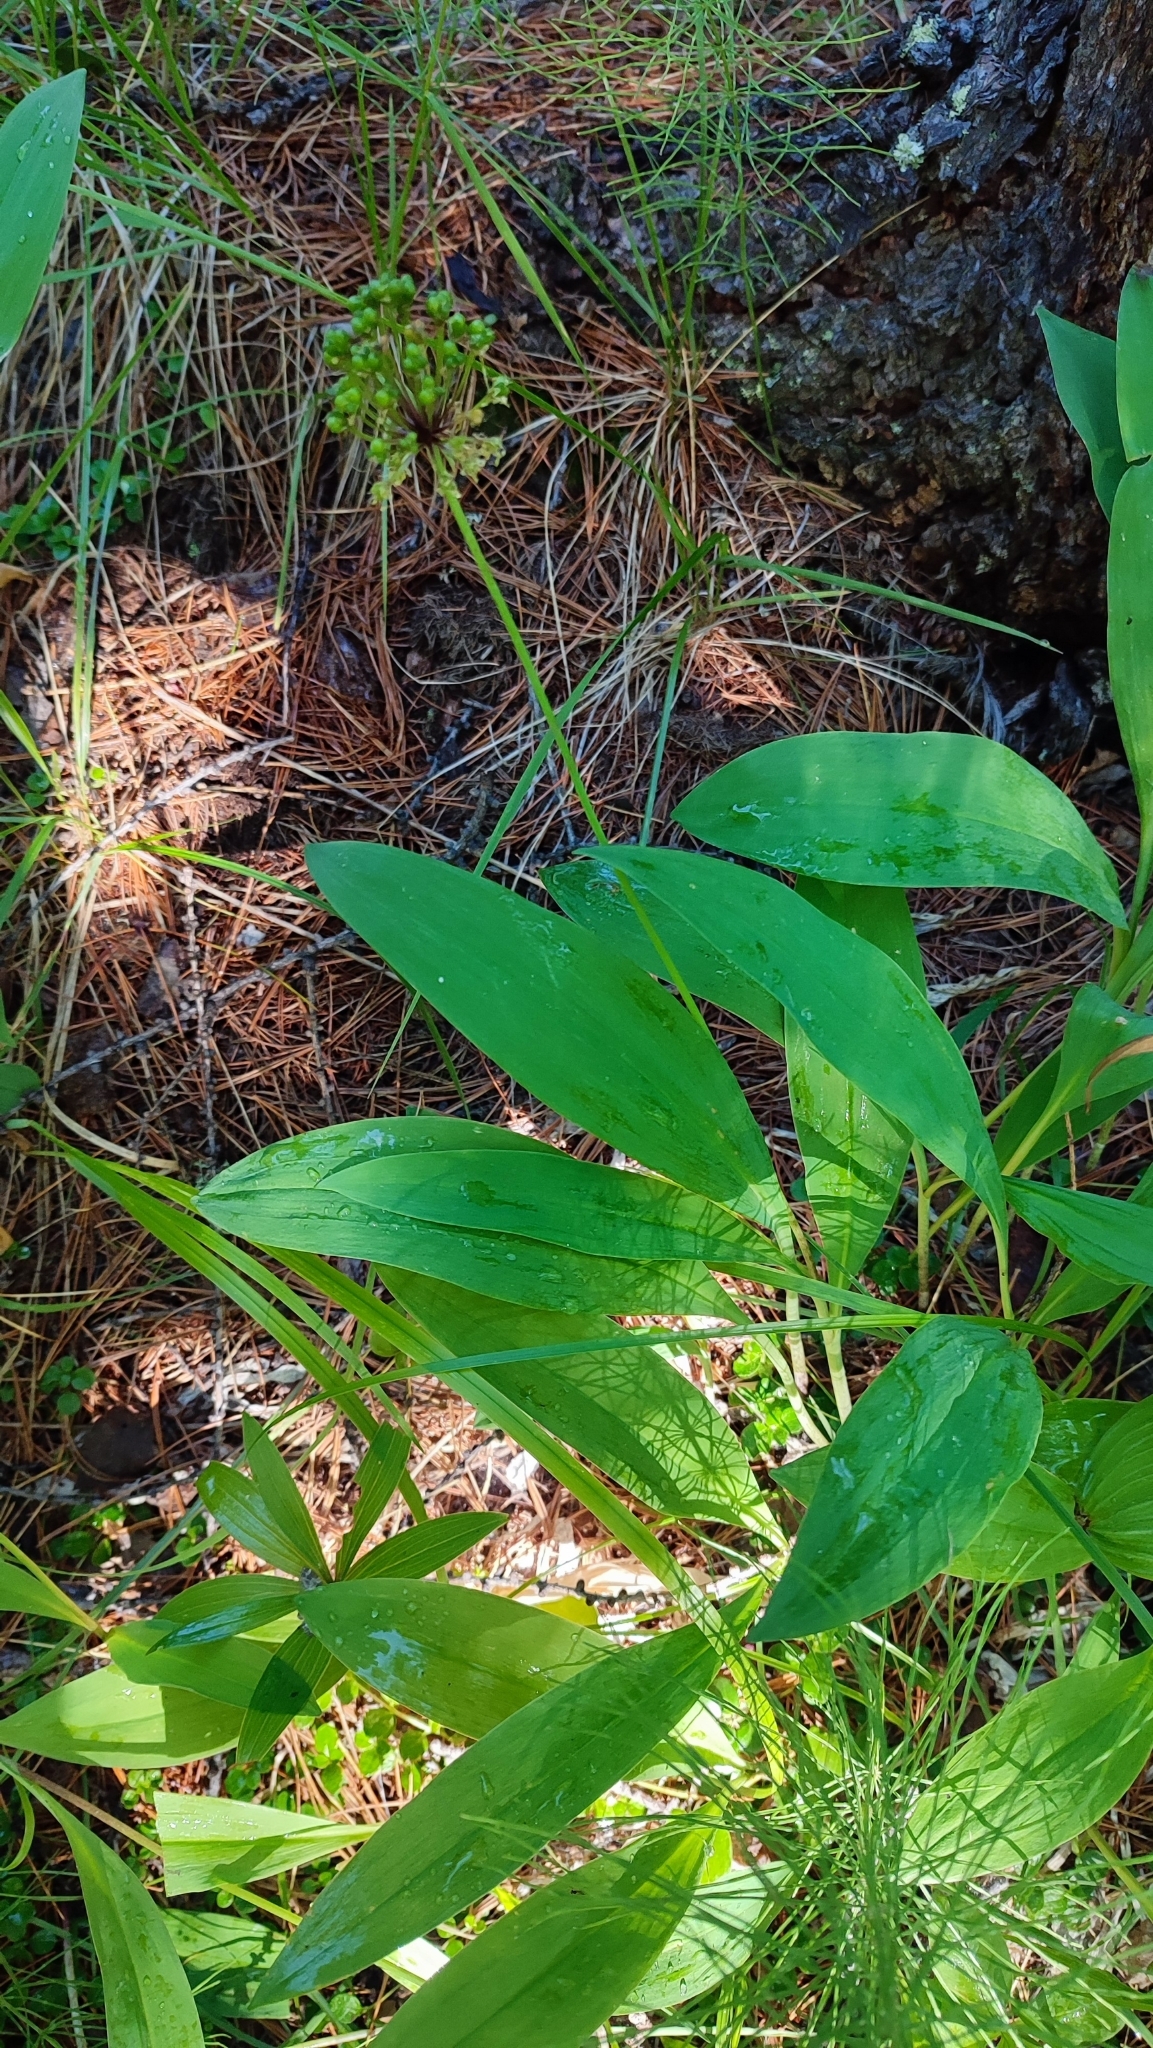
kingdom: Plantae
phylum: Tracheophyta
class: Liliopsida
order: Asparagales
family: Amaryllidaceae
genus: Allium
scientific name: Allium microdictyon
